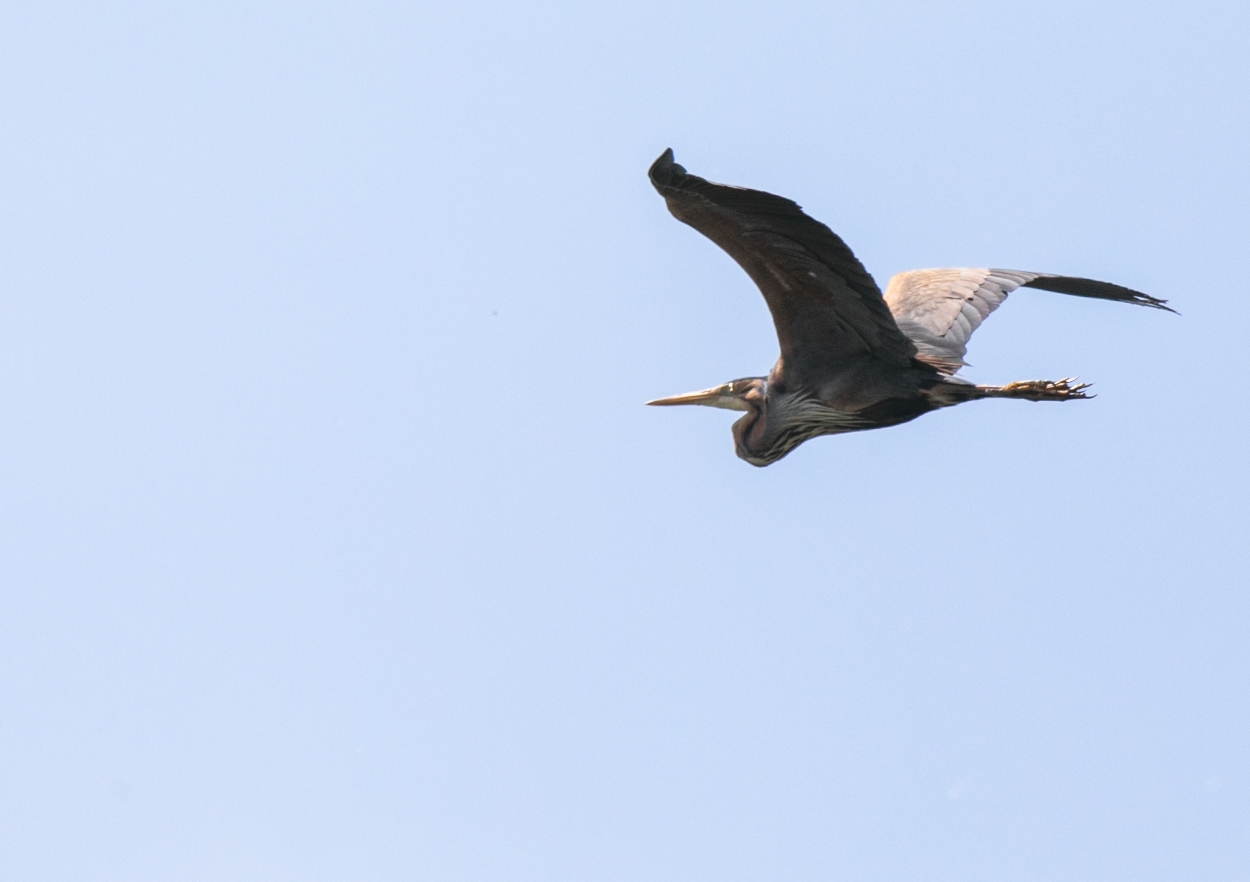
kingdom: Animalia
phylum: Chordata
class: Aves
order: Pelecaniformes
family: Ardeidae
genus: Ardea
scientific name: Ardea purpurea
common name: Purple heron
